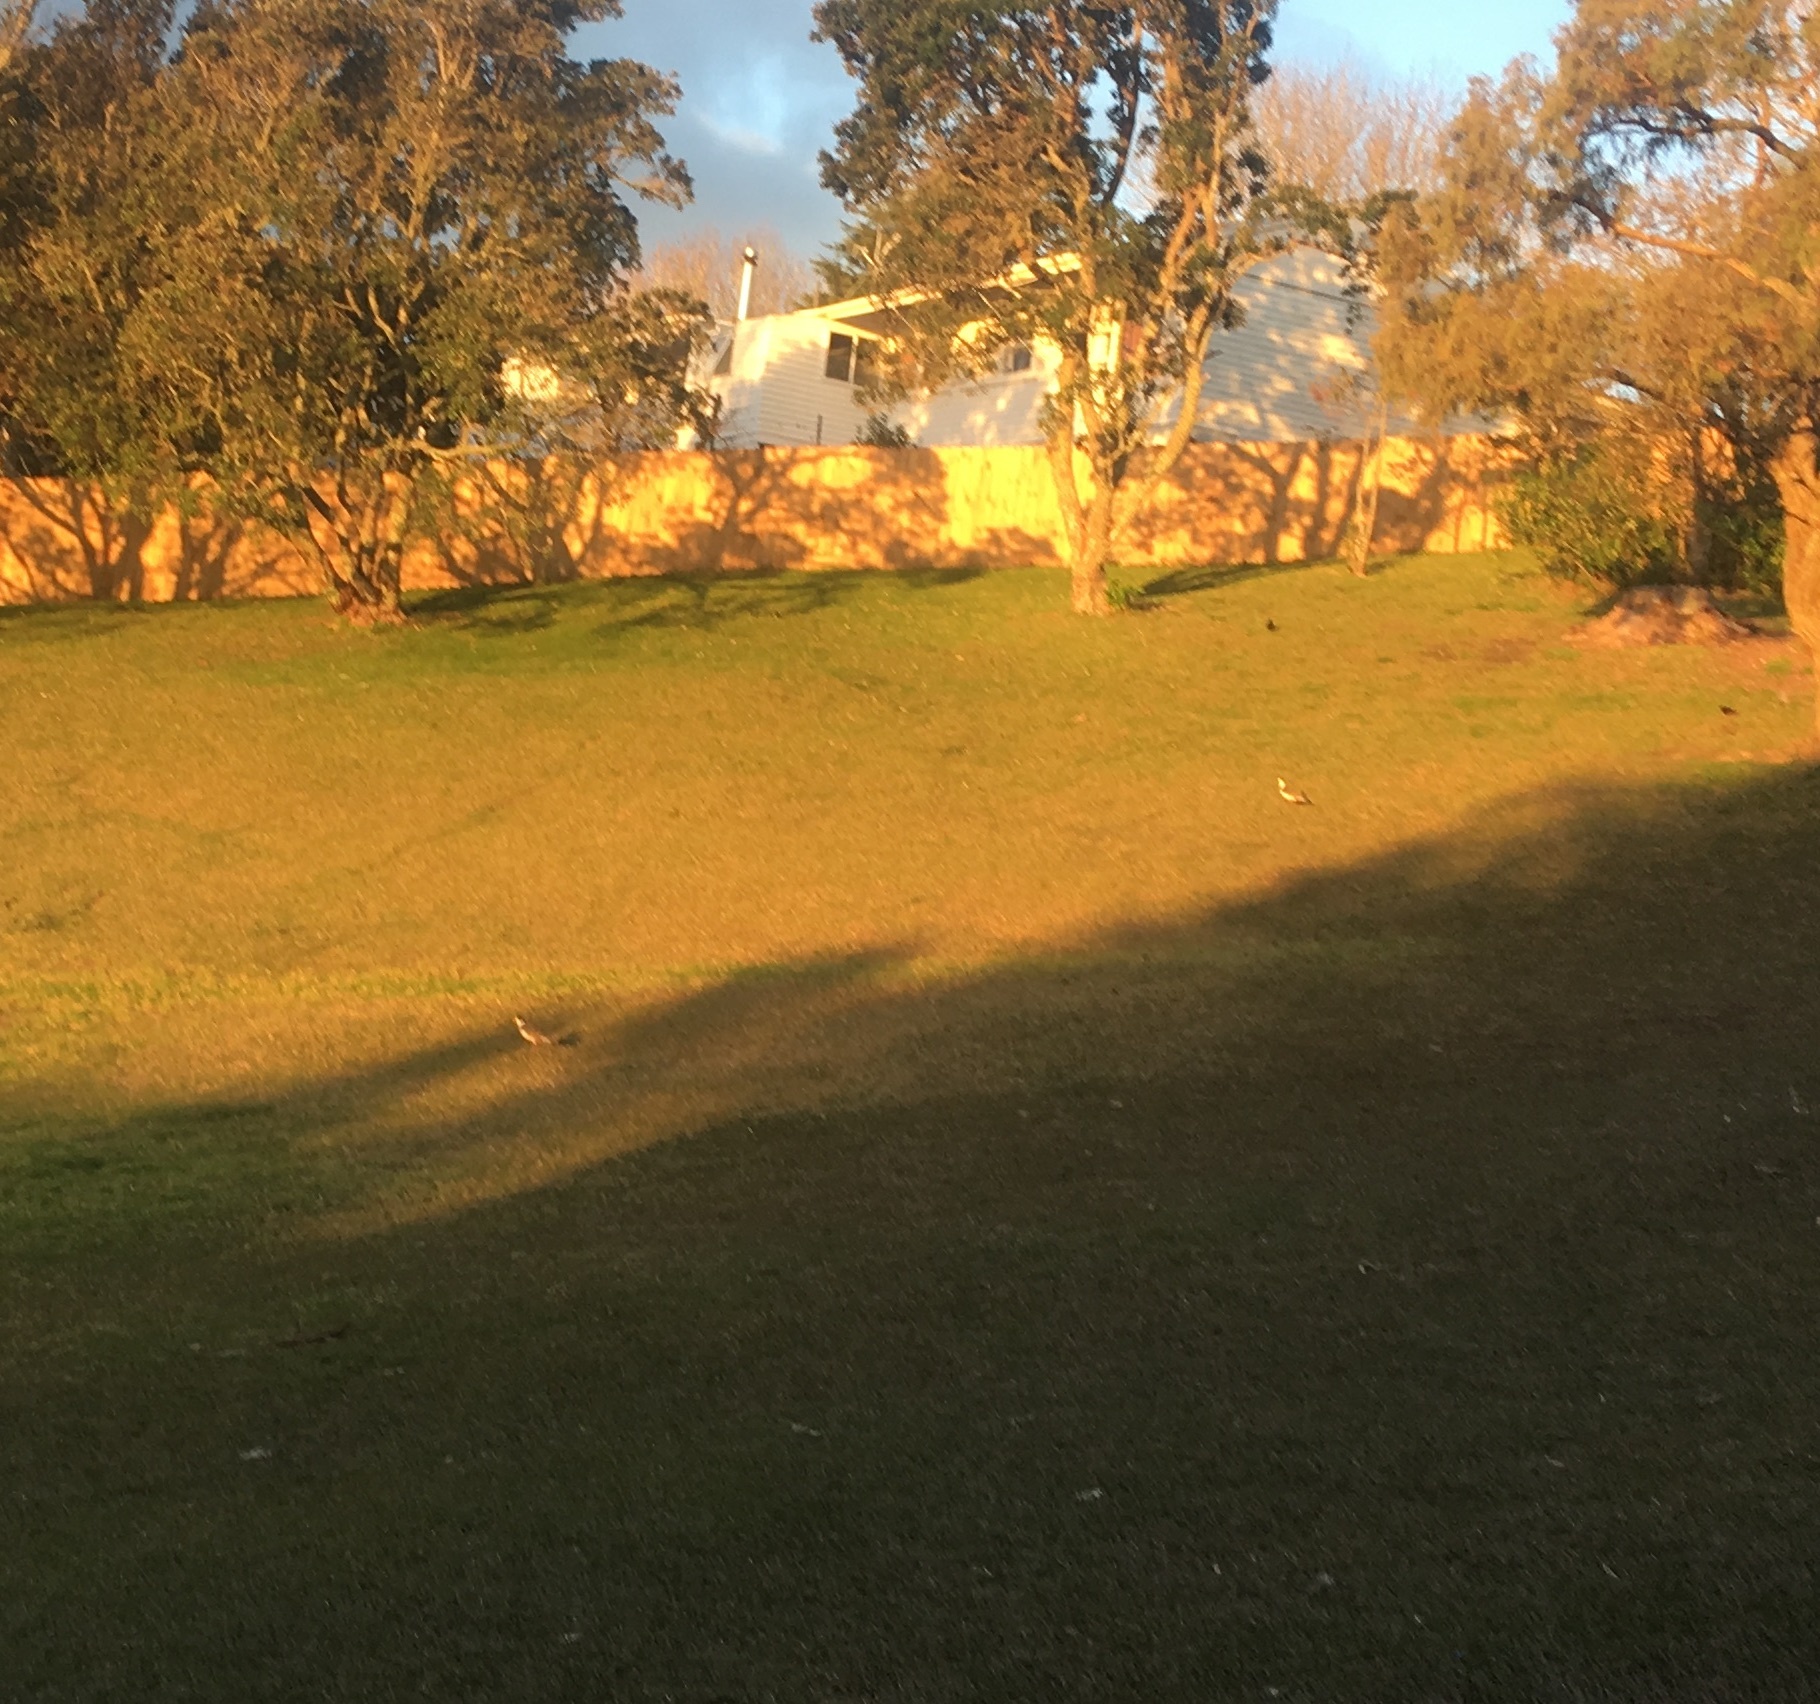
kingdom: Animalia
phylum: Chordata
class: Aves
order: Charadriiformes
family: Charadriidae
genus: Vanellus
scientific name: Vanellus miles
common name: Masked lapwing
